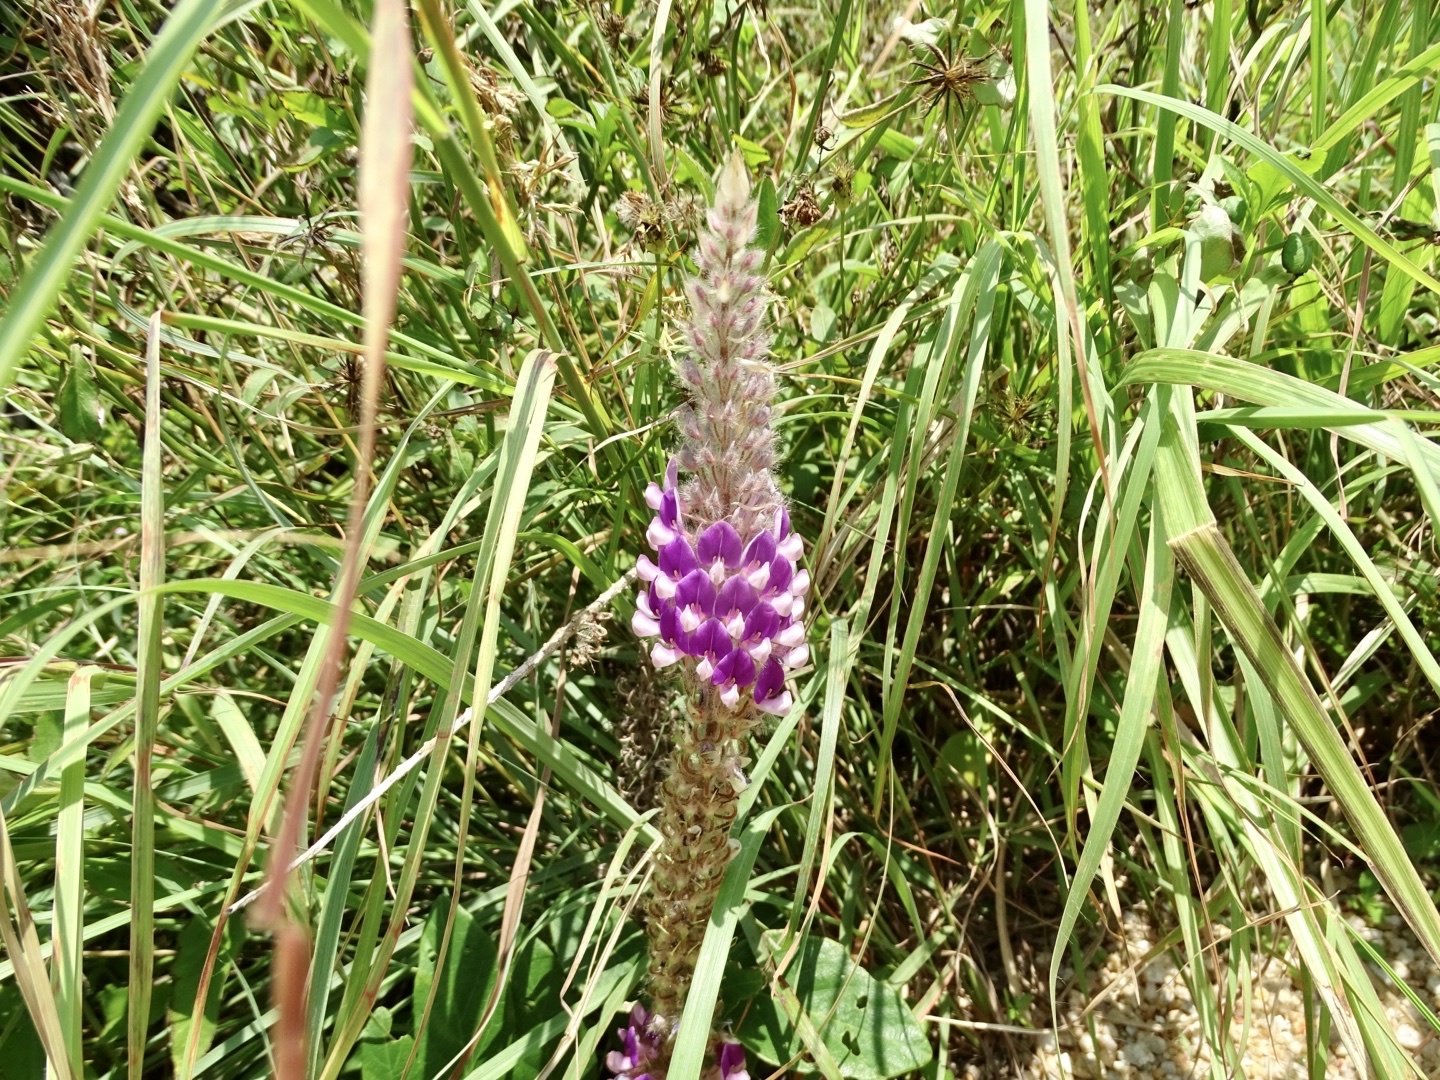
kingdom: Plantae
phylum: Tracheophyta
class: Magnoliopsida
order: Fabales
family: Fabaceae
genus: Uraria
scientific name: Uraria crinita
